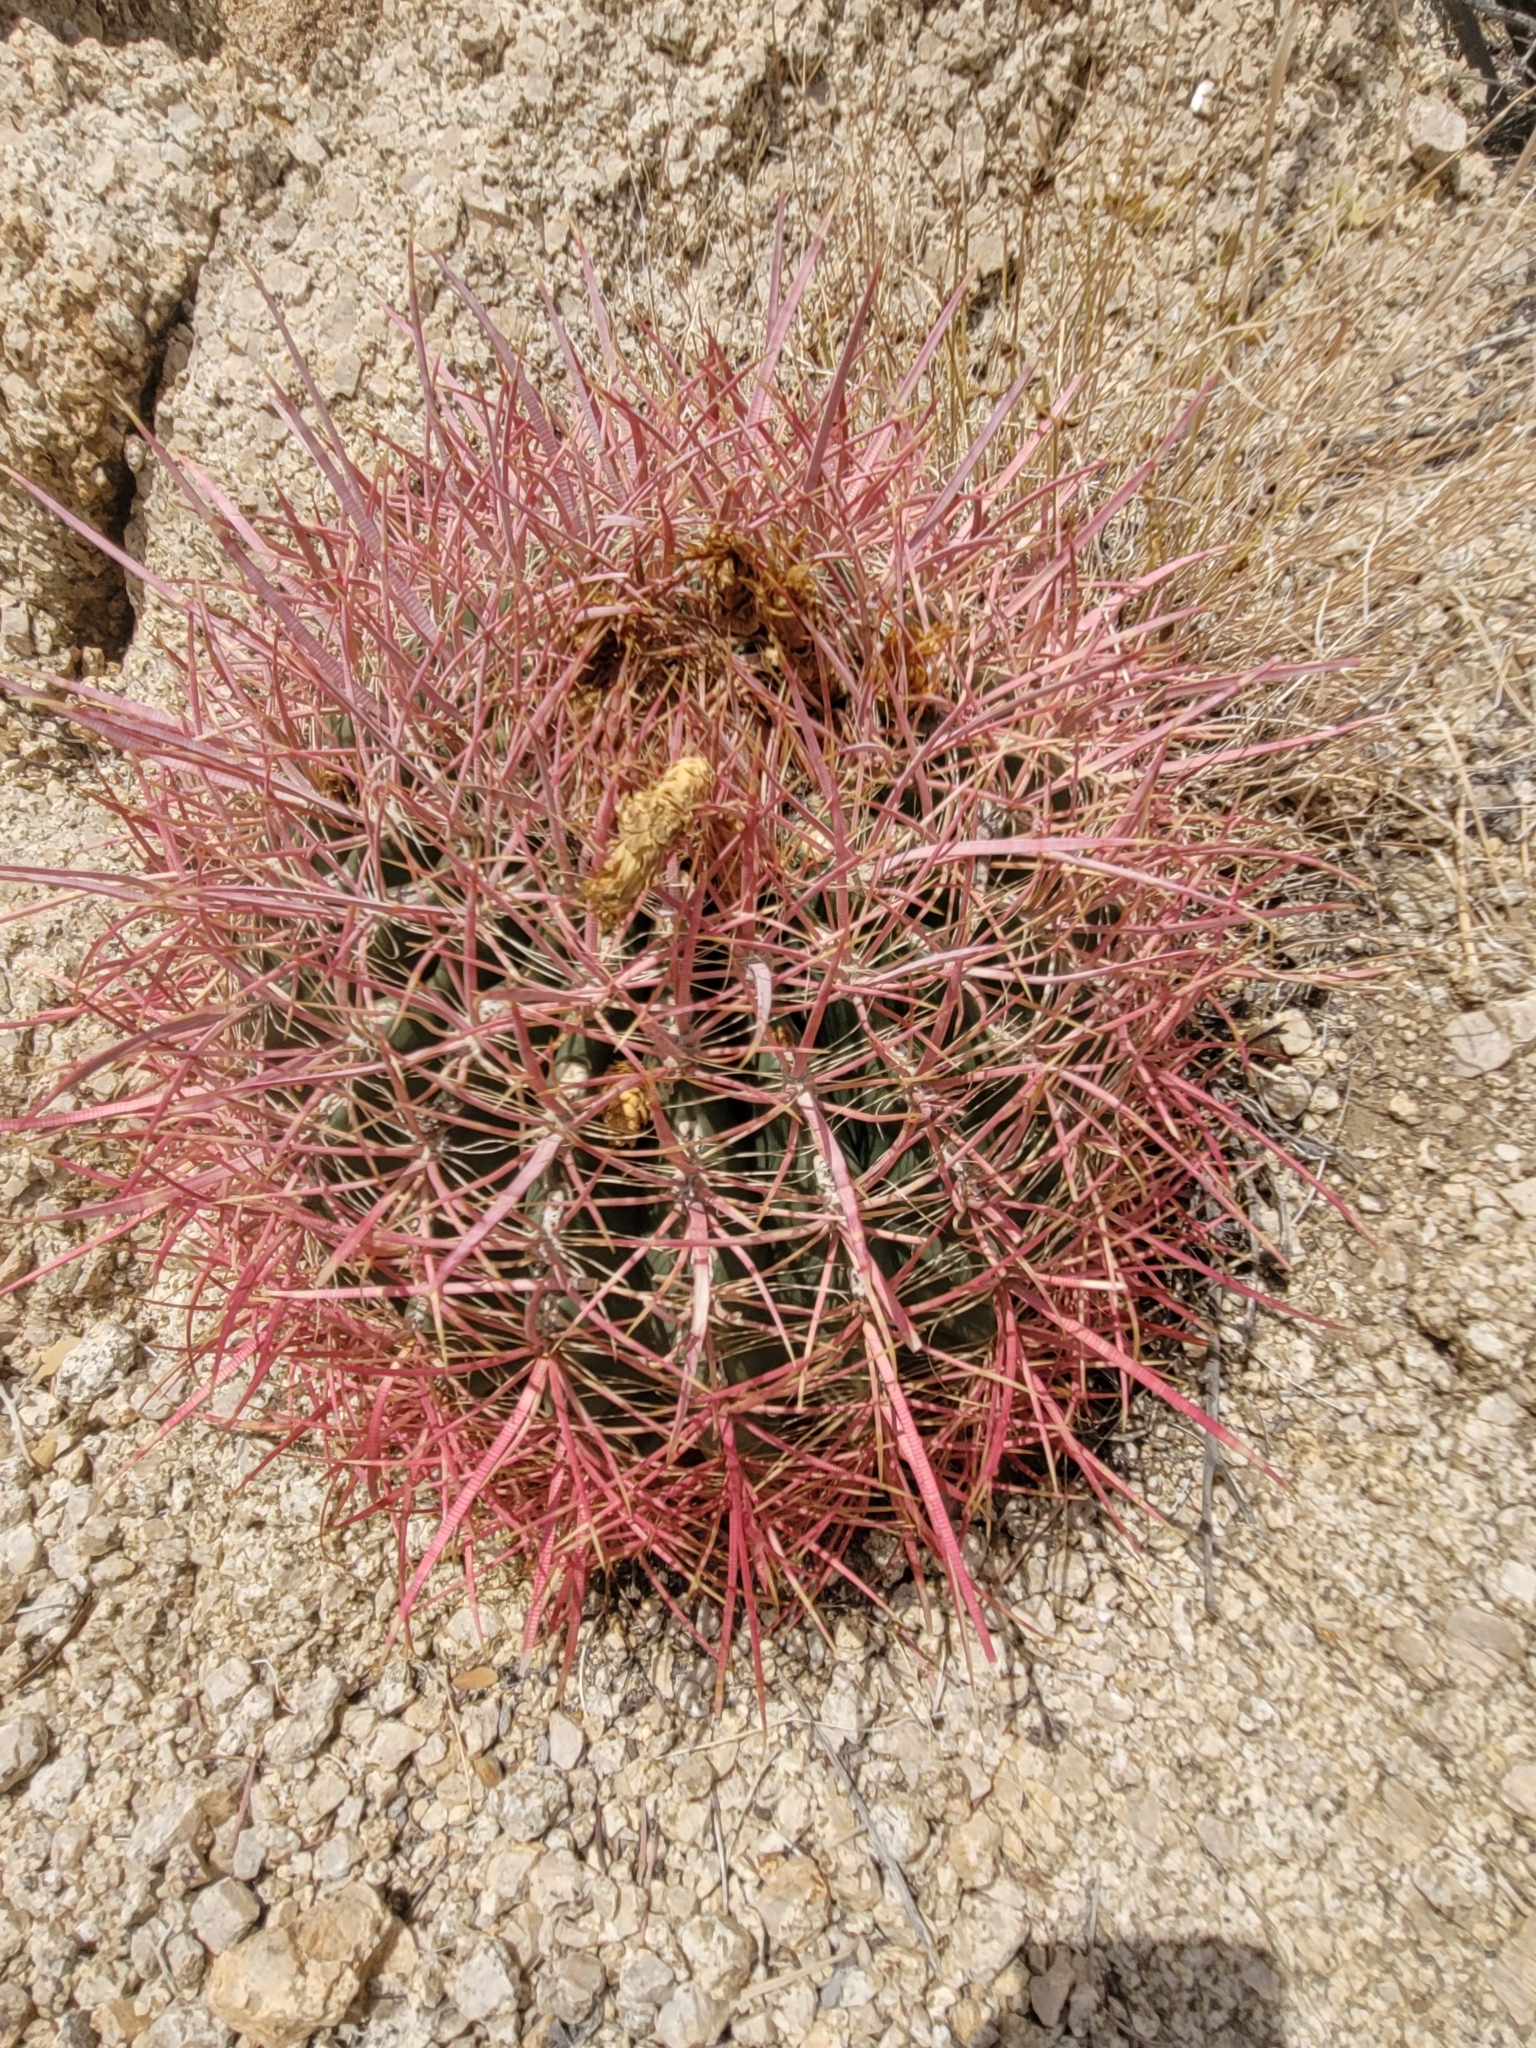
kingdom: Plantae
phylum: Tracheophyta
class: Magnoliopsida
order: Caryophyllales
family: Cactaceae
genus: Ferocactus
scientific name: Ferocactus cylindraceus
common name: California barrel cactus
